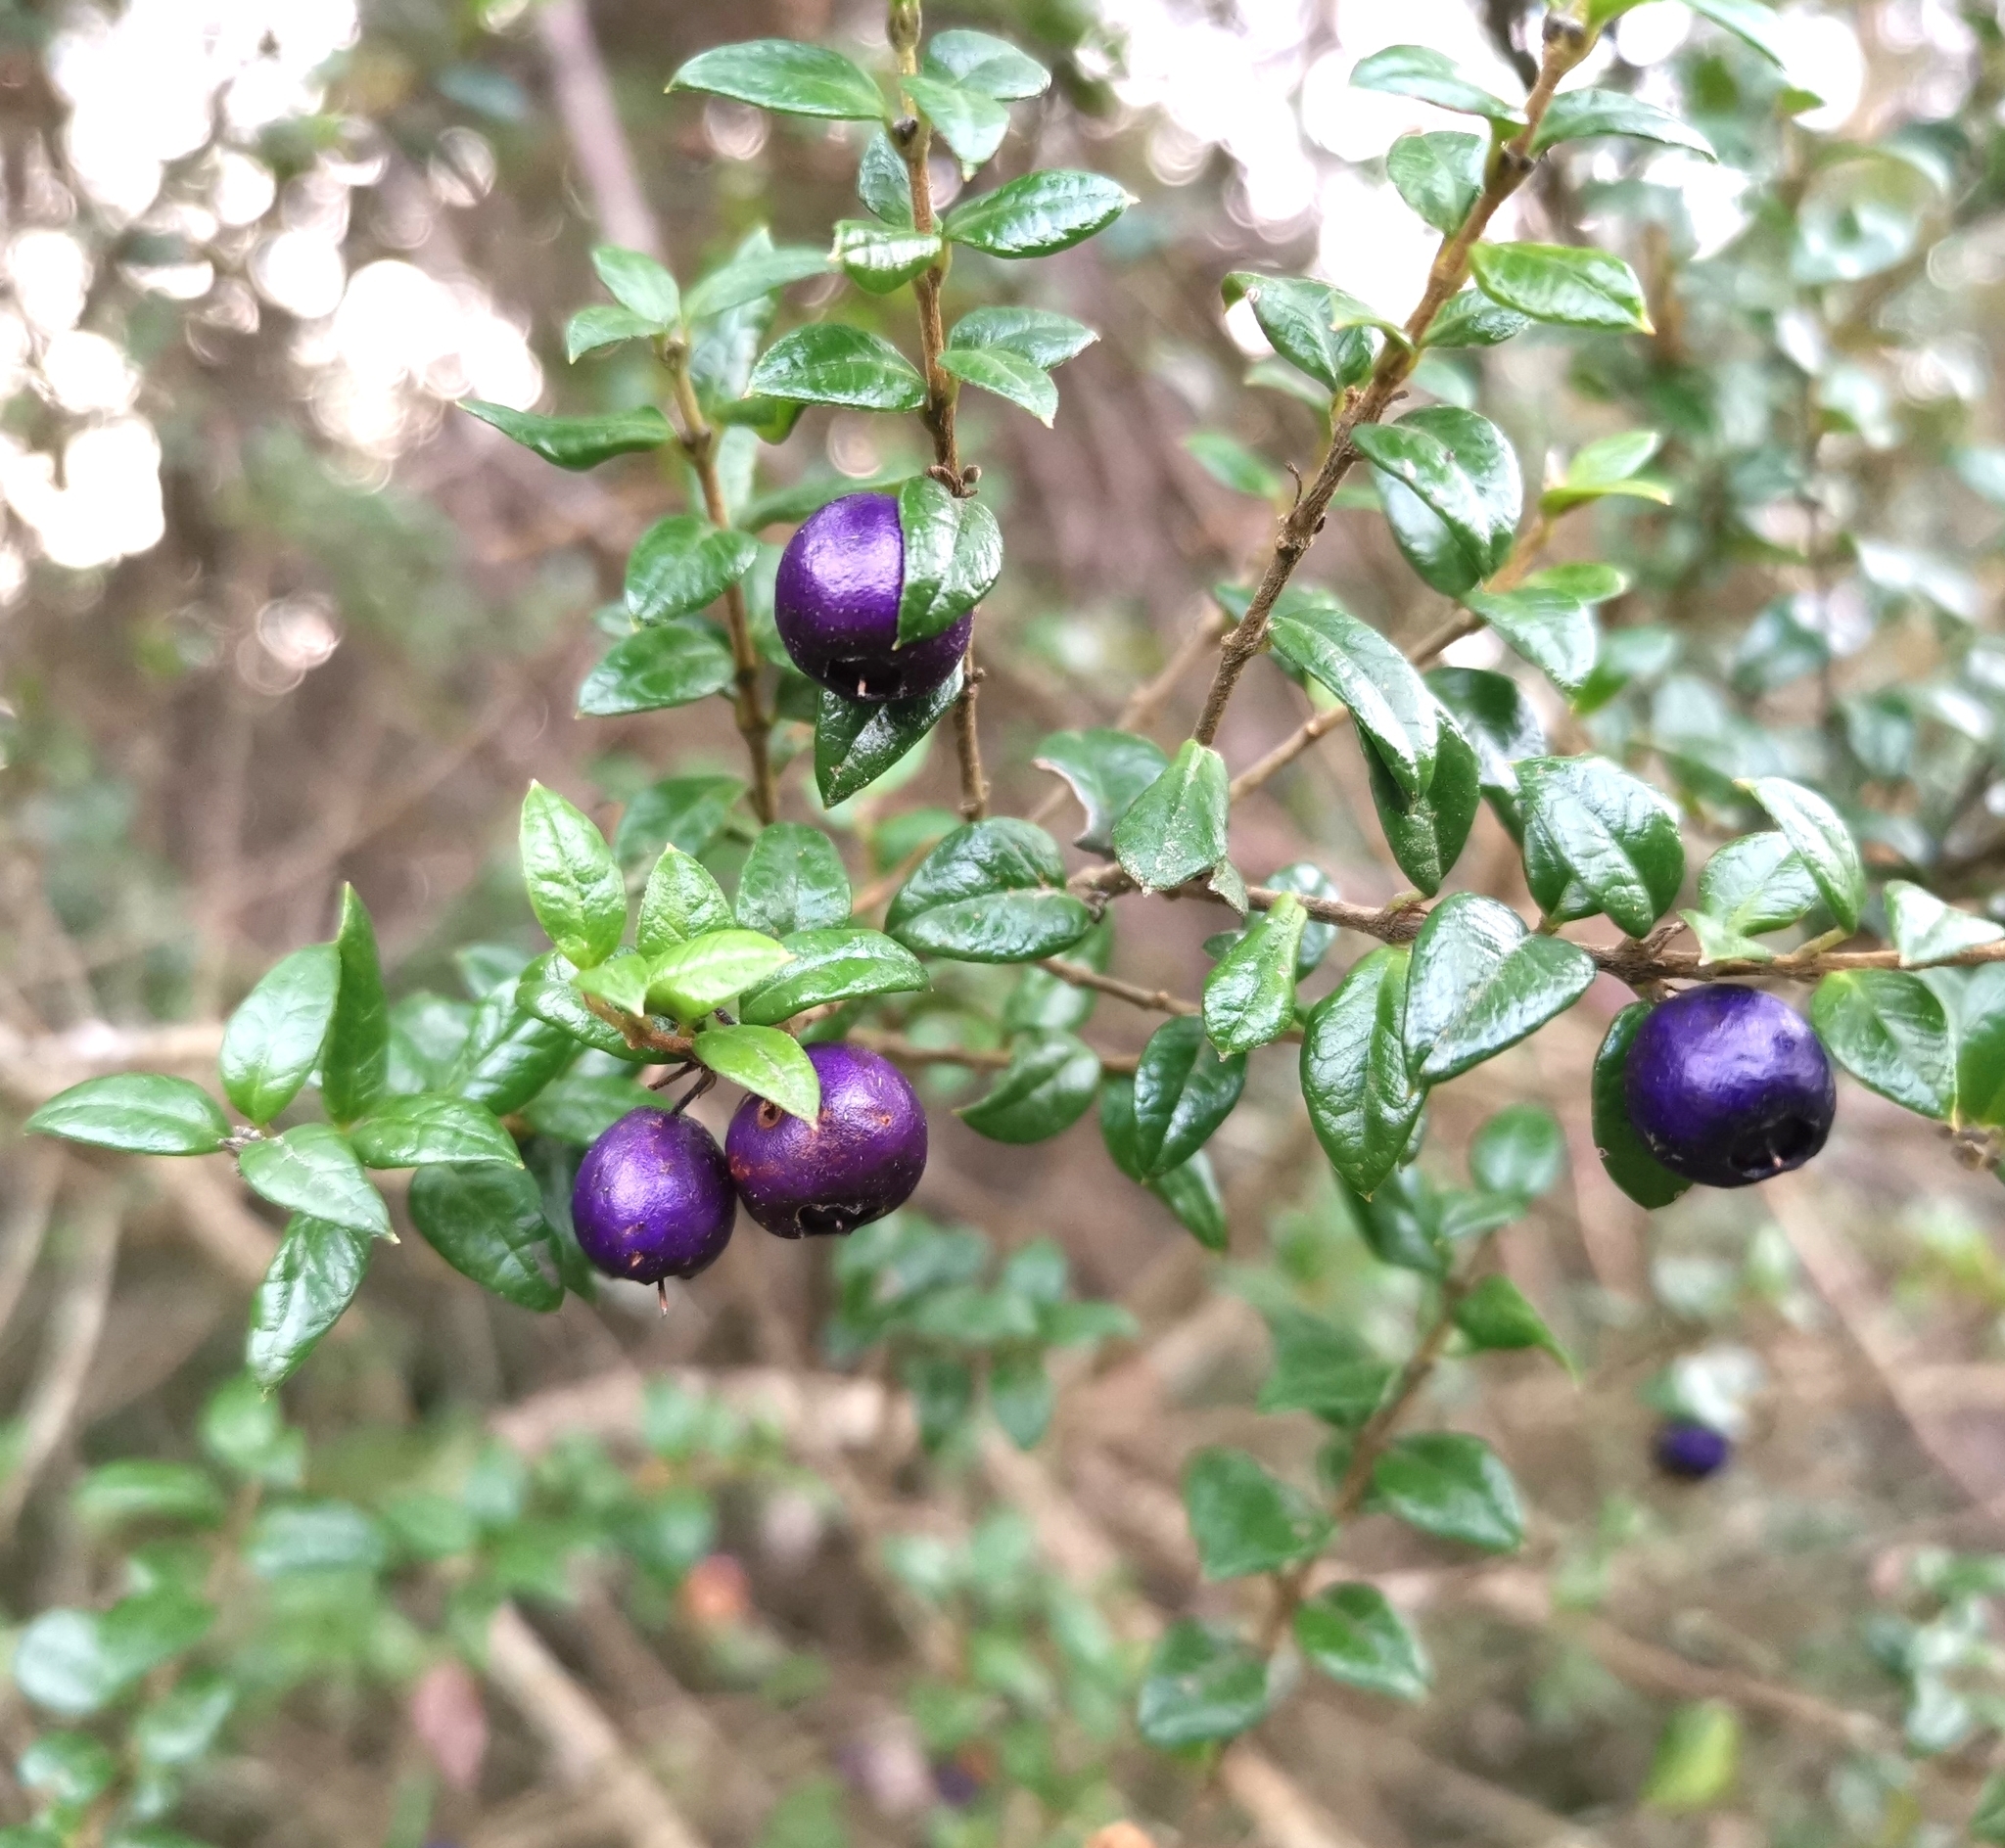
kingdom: Plantae
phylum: Tracheophyta
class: Magnoliopsida
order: Lamiales
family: Verbenaceae
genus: Rhaphithamnus
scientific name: Rhaphithamnus spinosus
